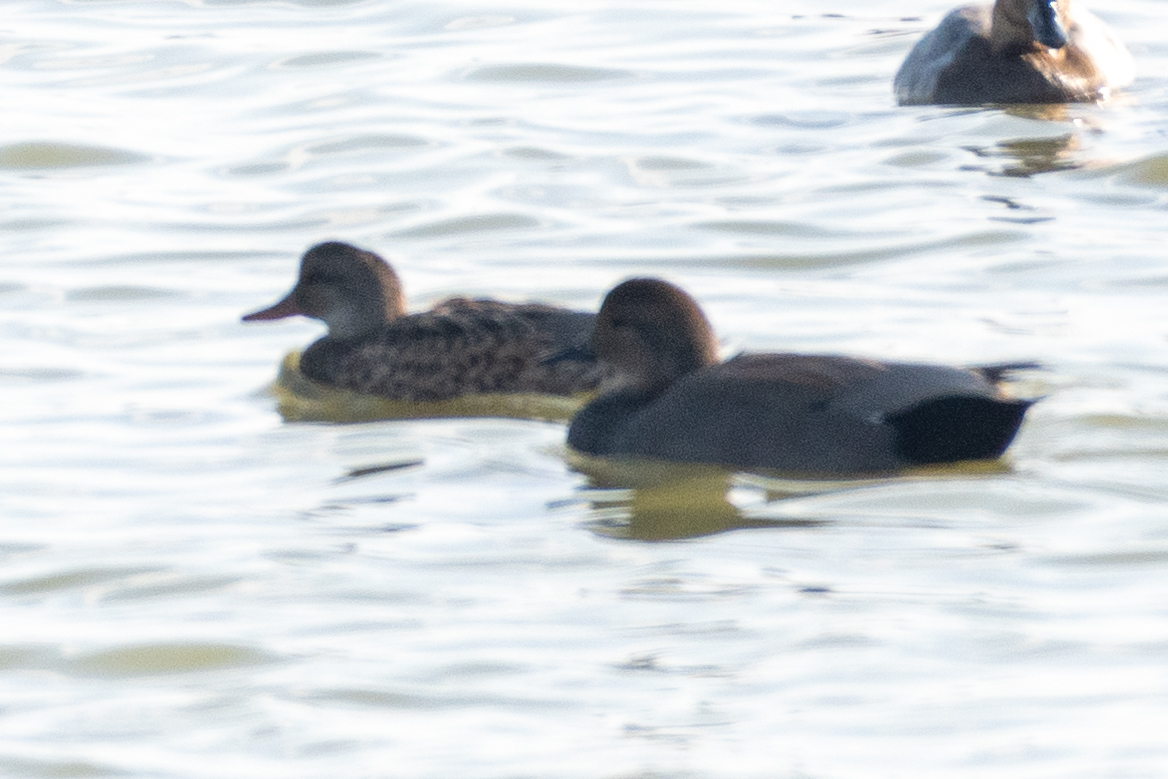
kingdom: Animalia
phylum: Chordata
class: Aves
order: Anseriformes
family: Anatidae
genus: Mareca
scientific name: Mareca strepera
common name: Gadwall
